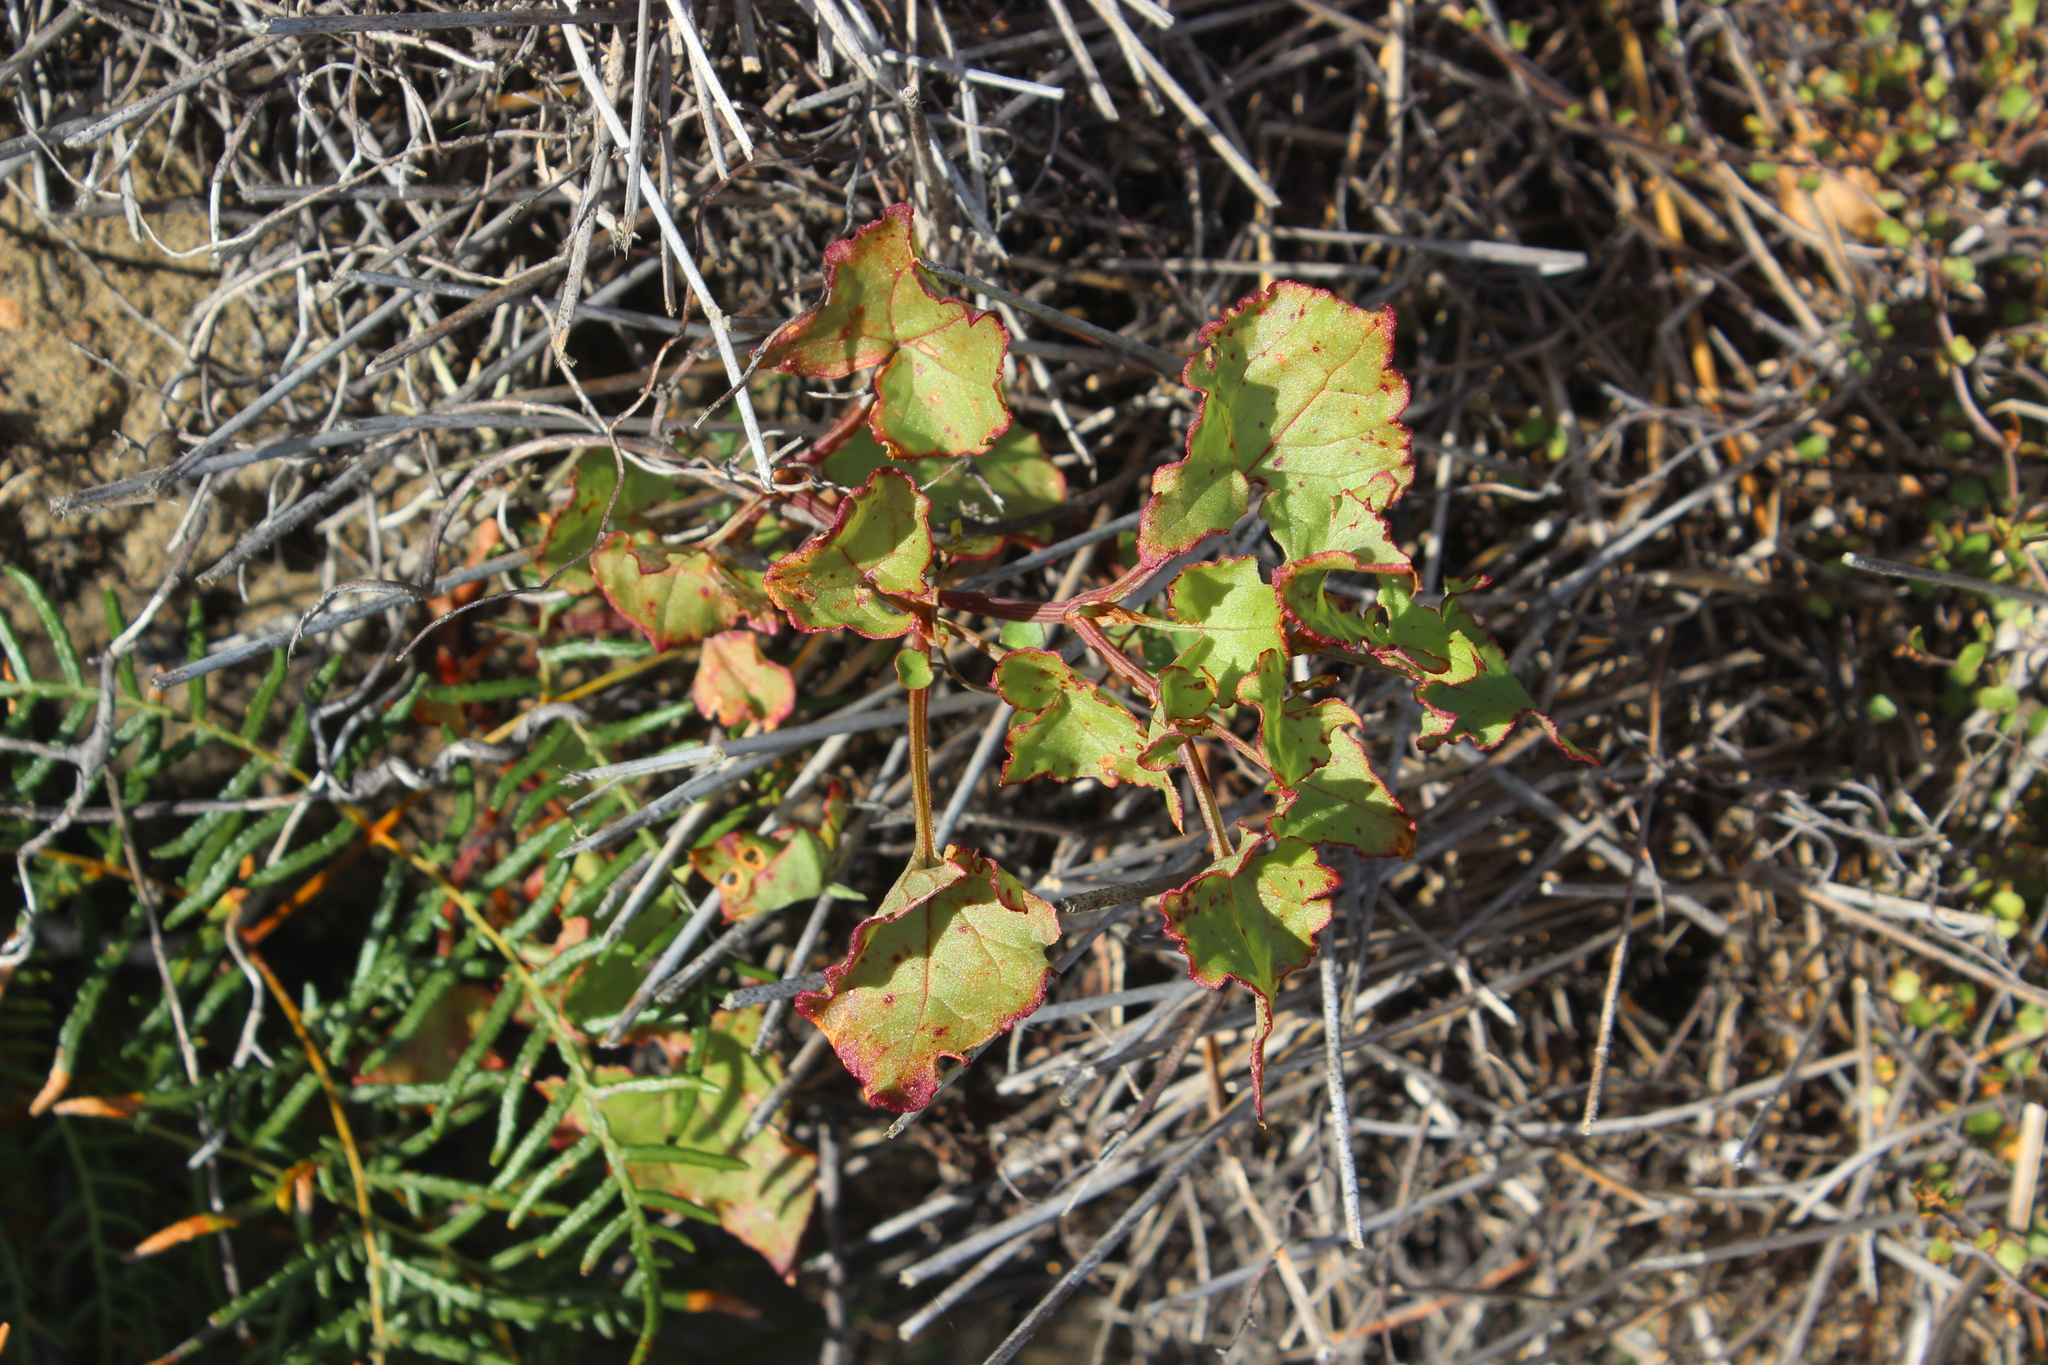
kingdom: Plantae
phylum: Tracheophyta
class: Magnoliopsida
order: Caryophyllales
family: Polygonaceae
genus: Rumex
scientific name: Rumex sagittatus
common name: Climbing dock
